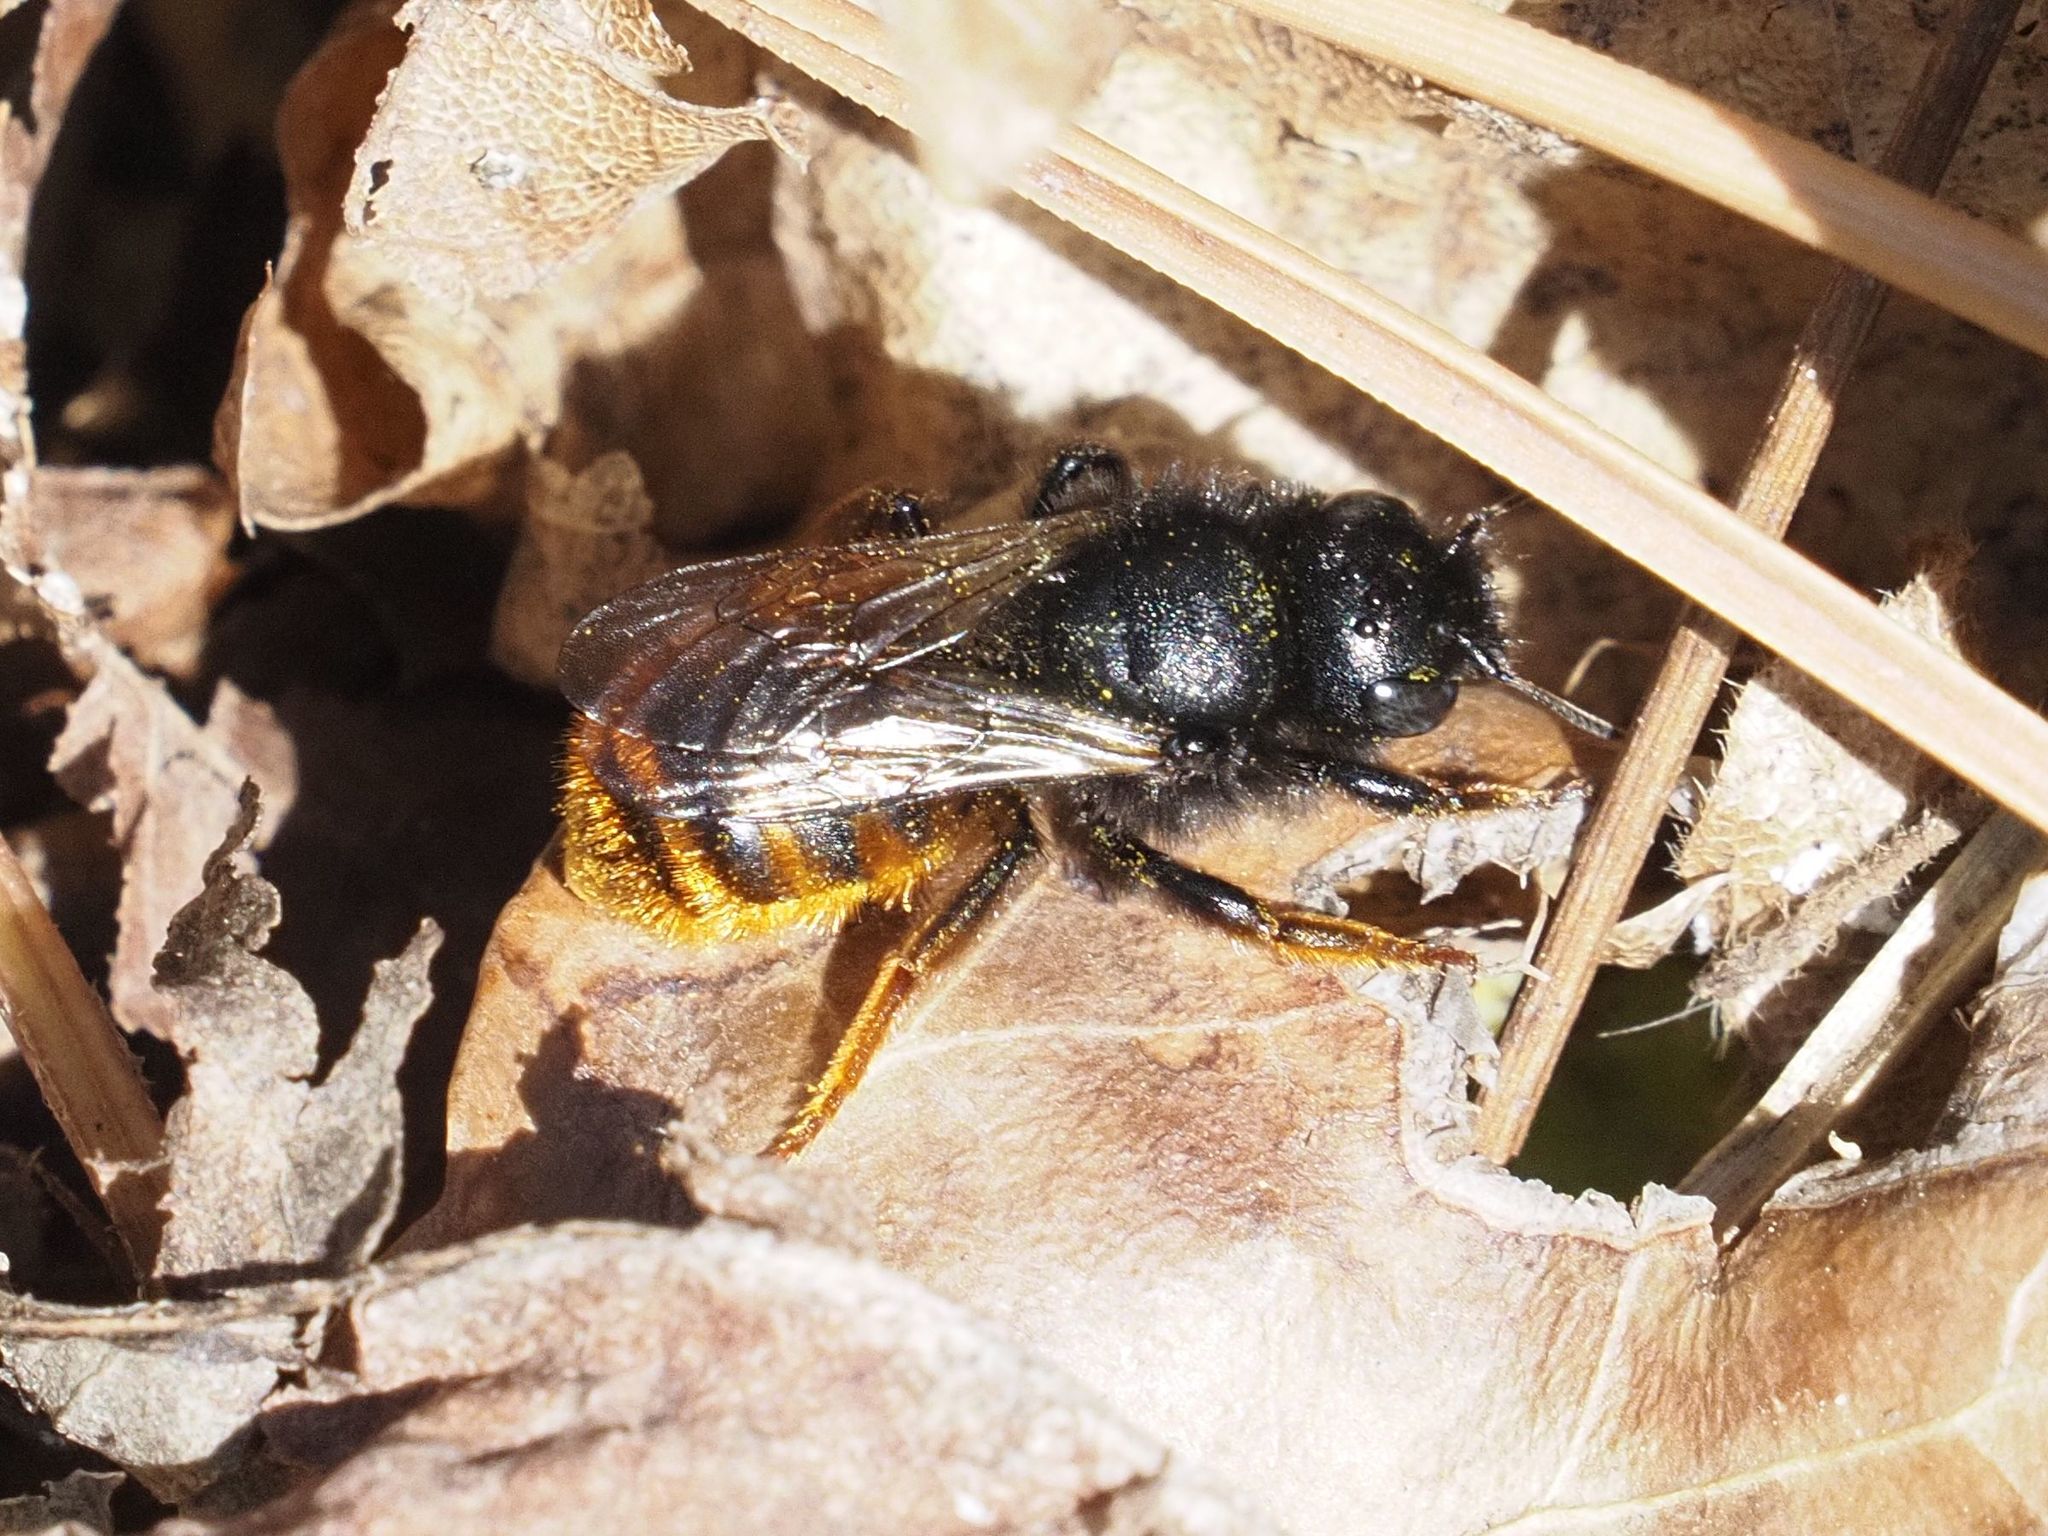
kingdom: Animalia
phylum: Arthropoda
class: Insecta
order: Hymenoptera
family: Megachilidae
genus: Osmia
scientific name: Osmia bicolor
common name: Red-tailed mason bee
